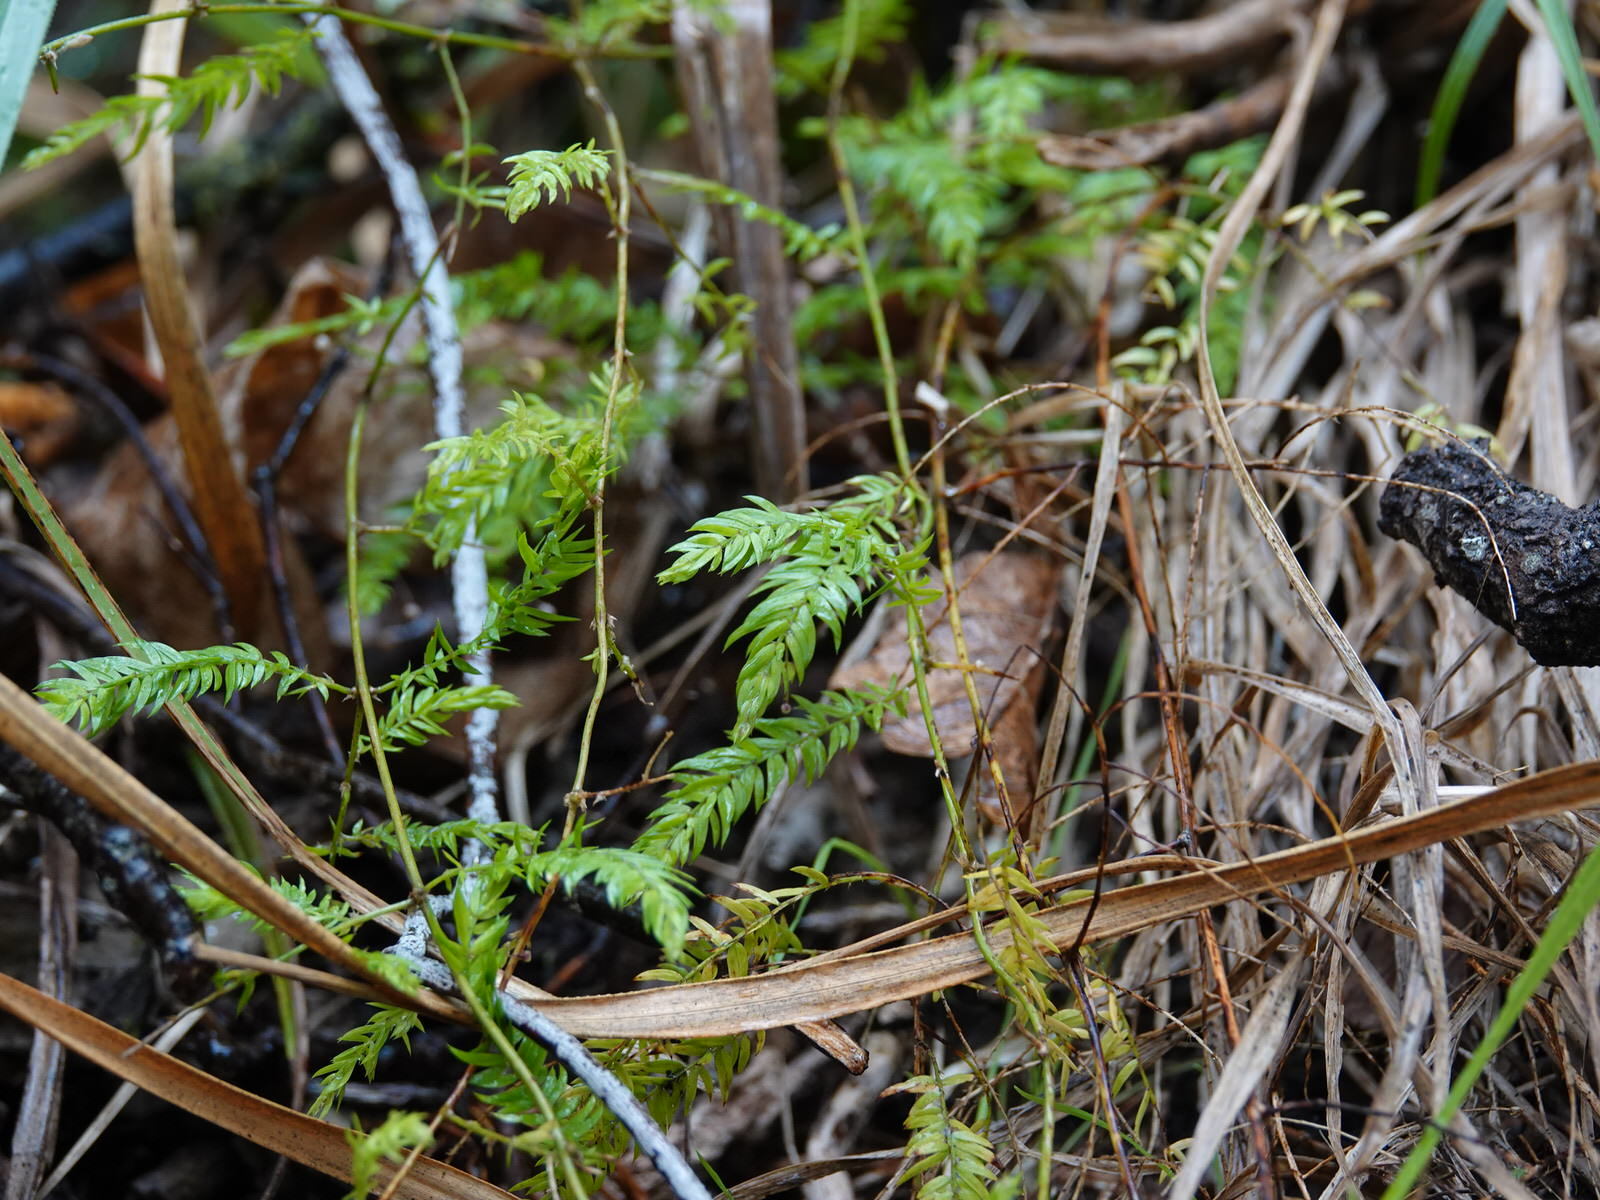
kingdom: Plantae
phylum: Tracheophyta
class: Liliopsida
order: Asparagales
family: Asparagaceae
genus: Asparagus
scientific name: Asparagus scandens
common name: Asparagus-fern
